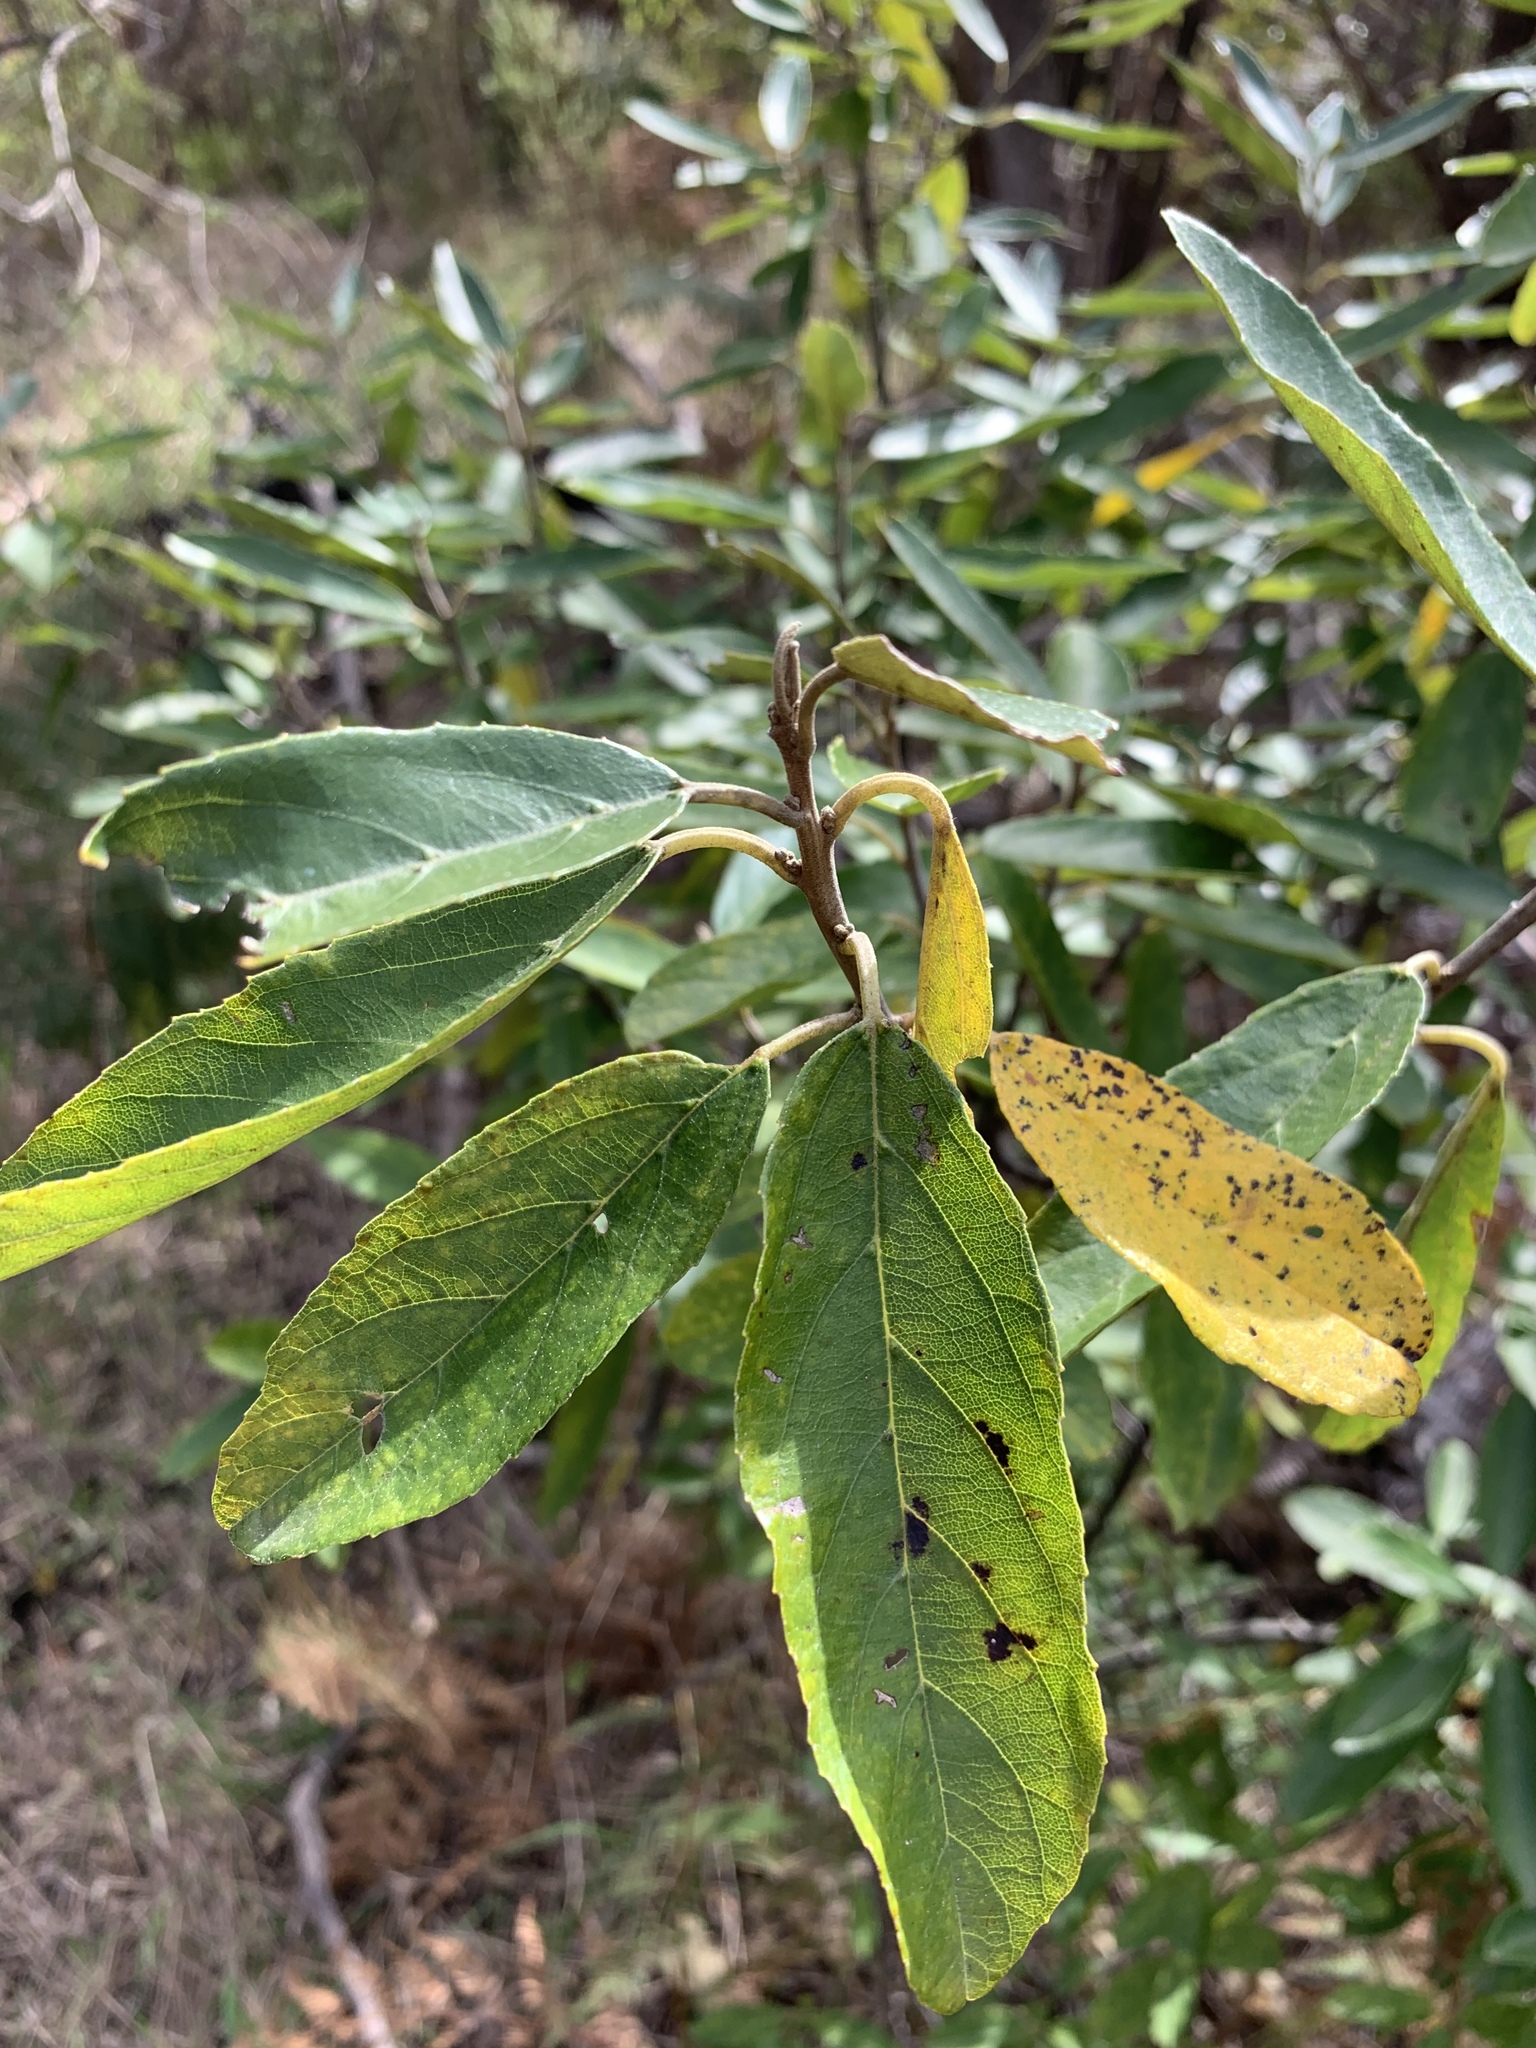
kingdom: Plantae
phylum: Tracheophyta
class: Magnoliopsida
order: Malpighiales
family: Achariaceae
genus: Kiggelaria
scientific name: Kiggelaria africana
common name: Wild peach
